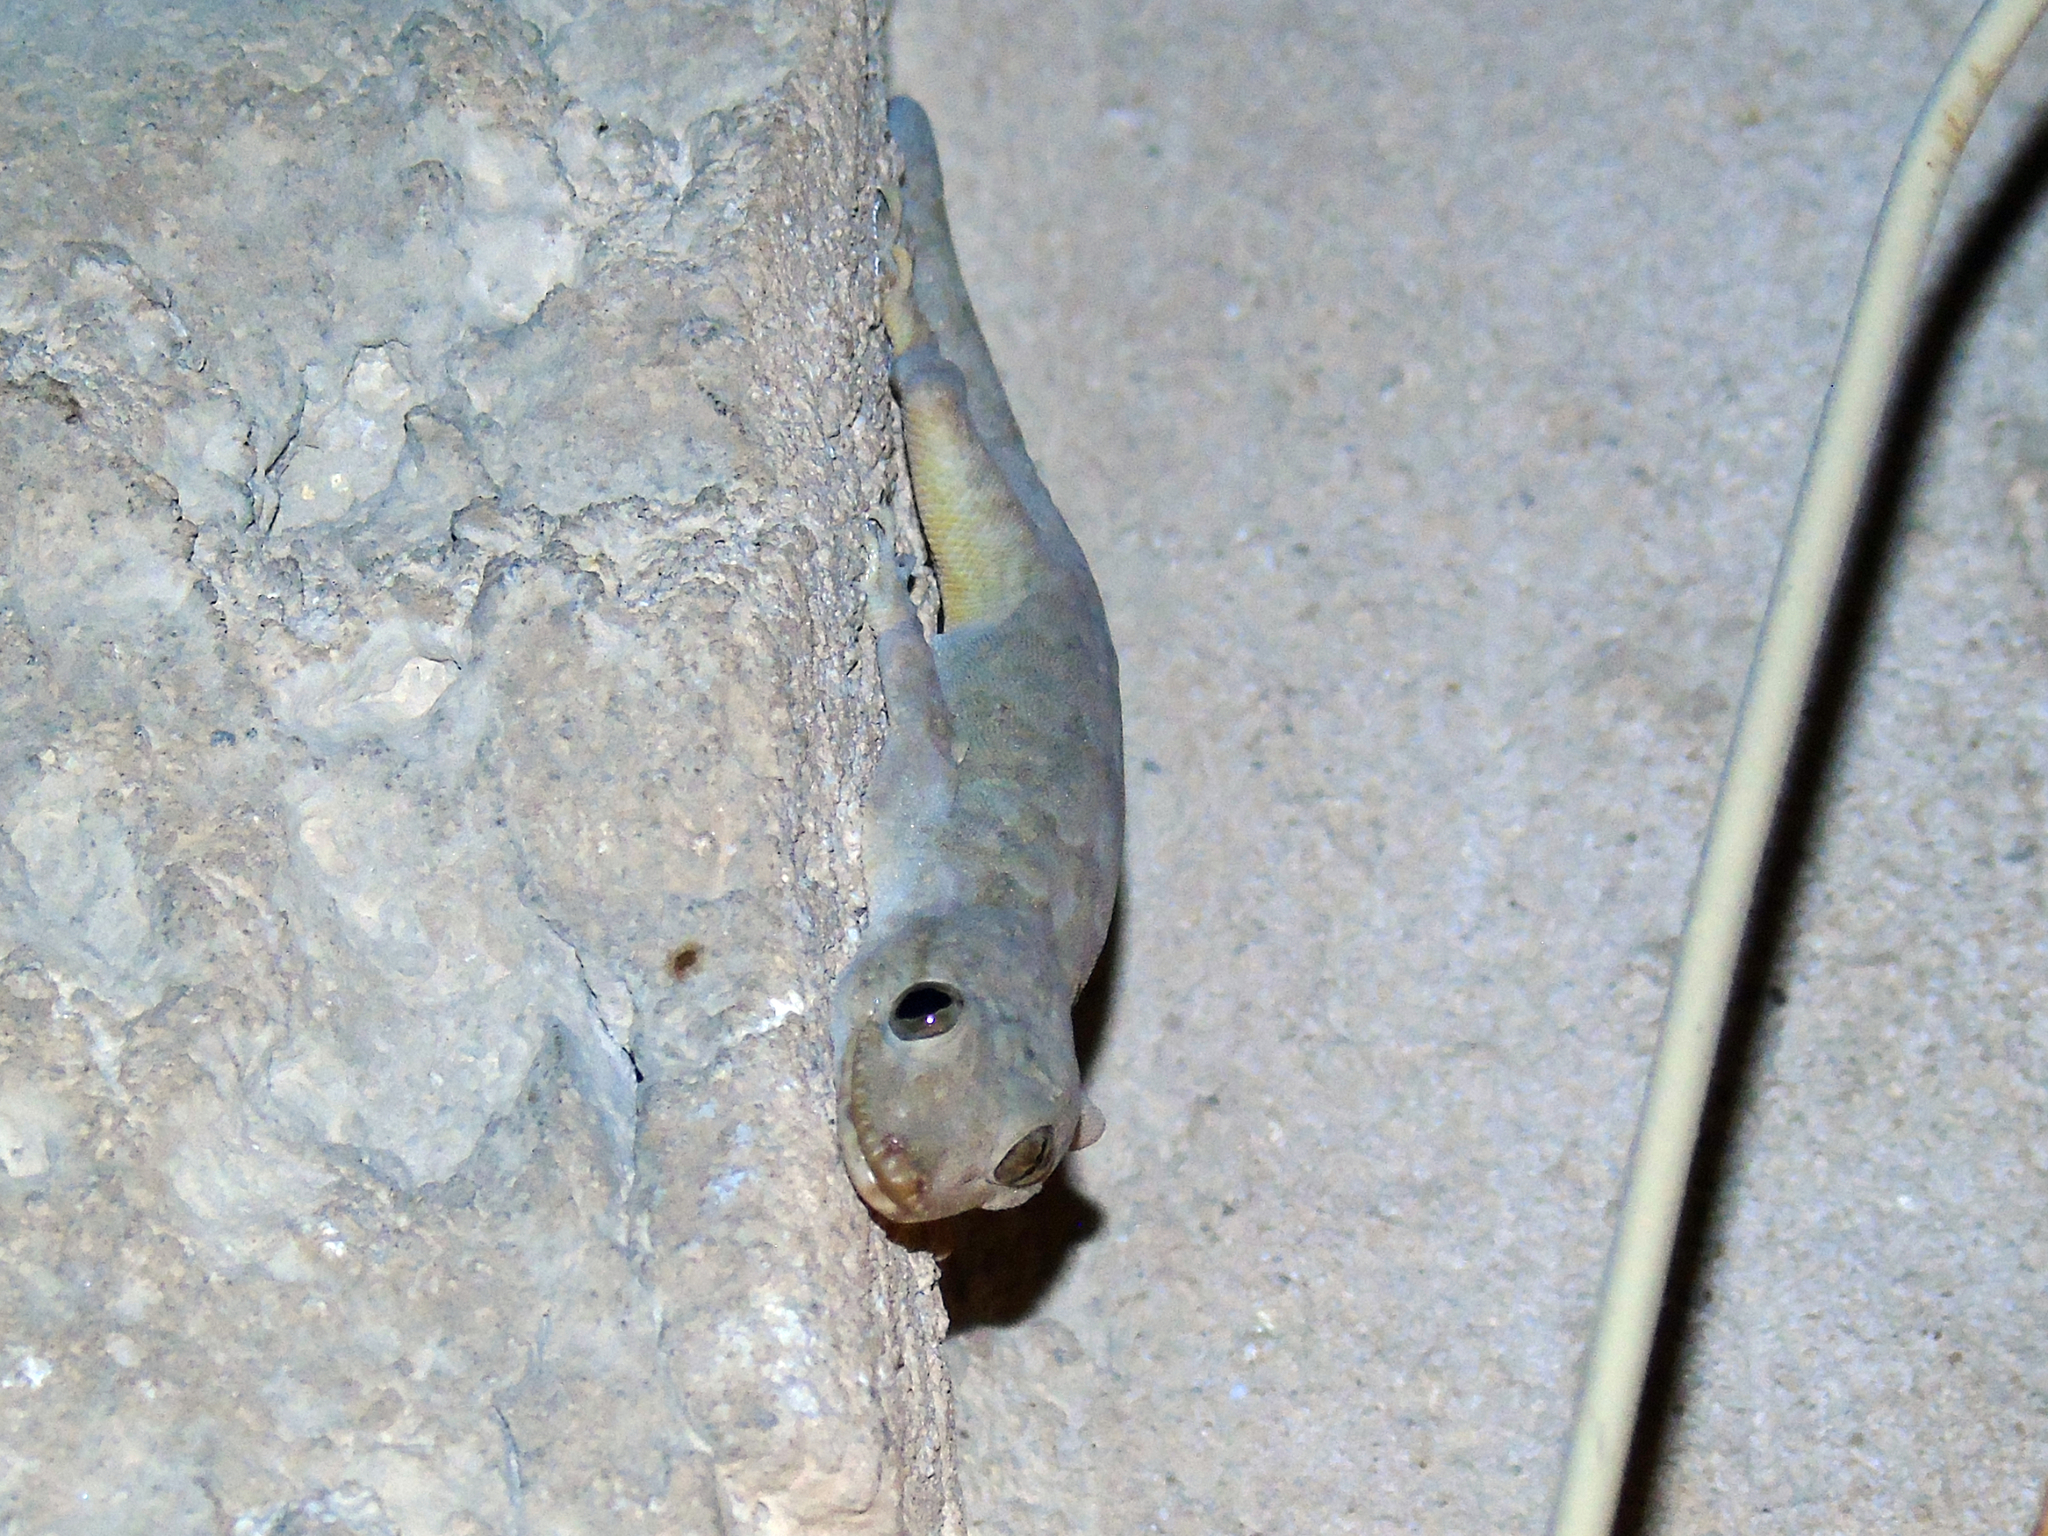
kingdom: Animalia
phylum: Chordata
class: Squamata
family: Gekkonidae
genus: Hemidactylus
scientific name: Hemidactylus flaviviridis
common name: Northern house gecko
